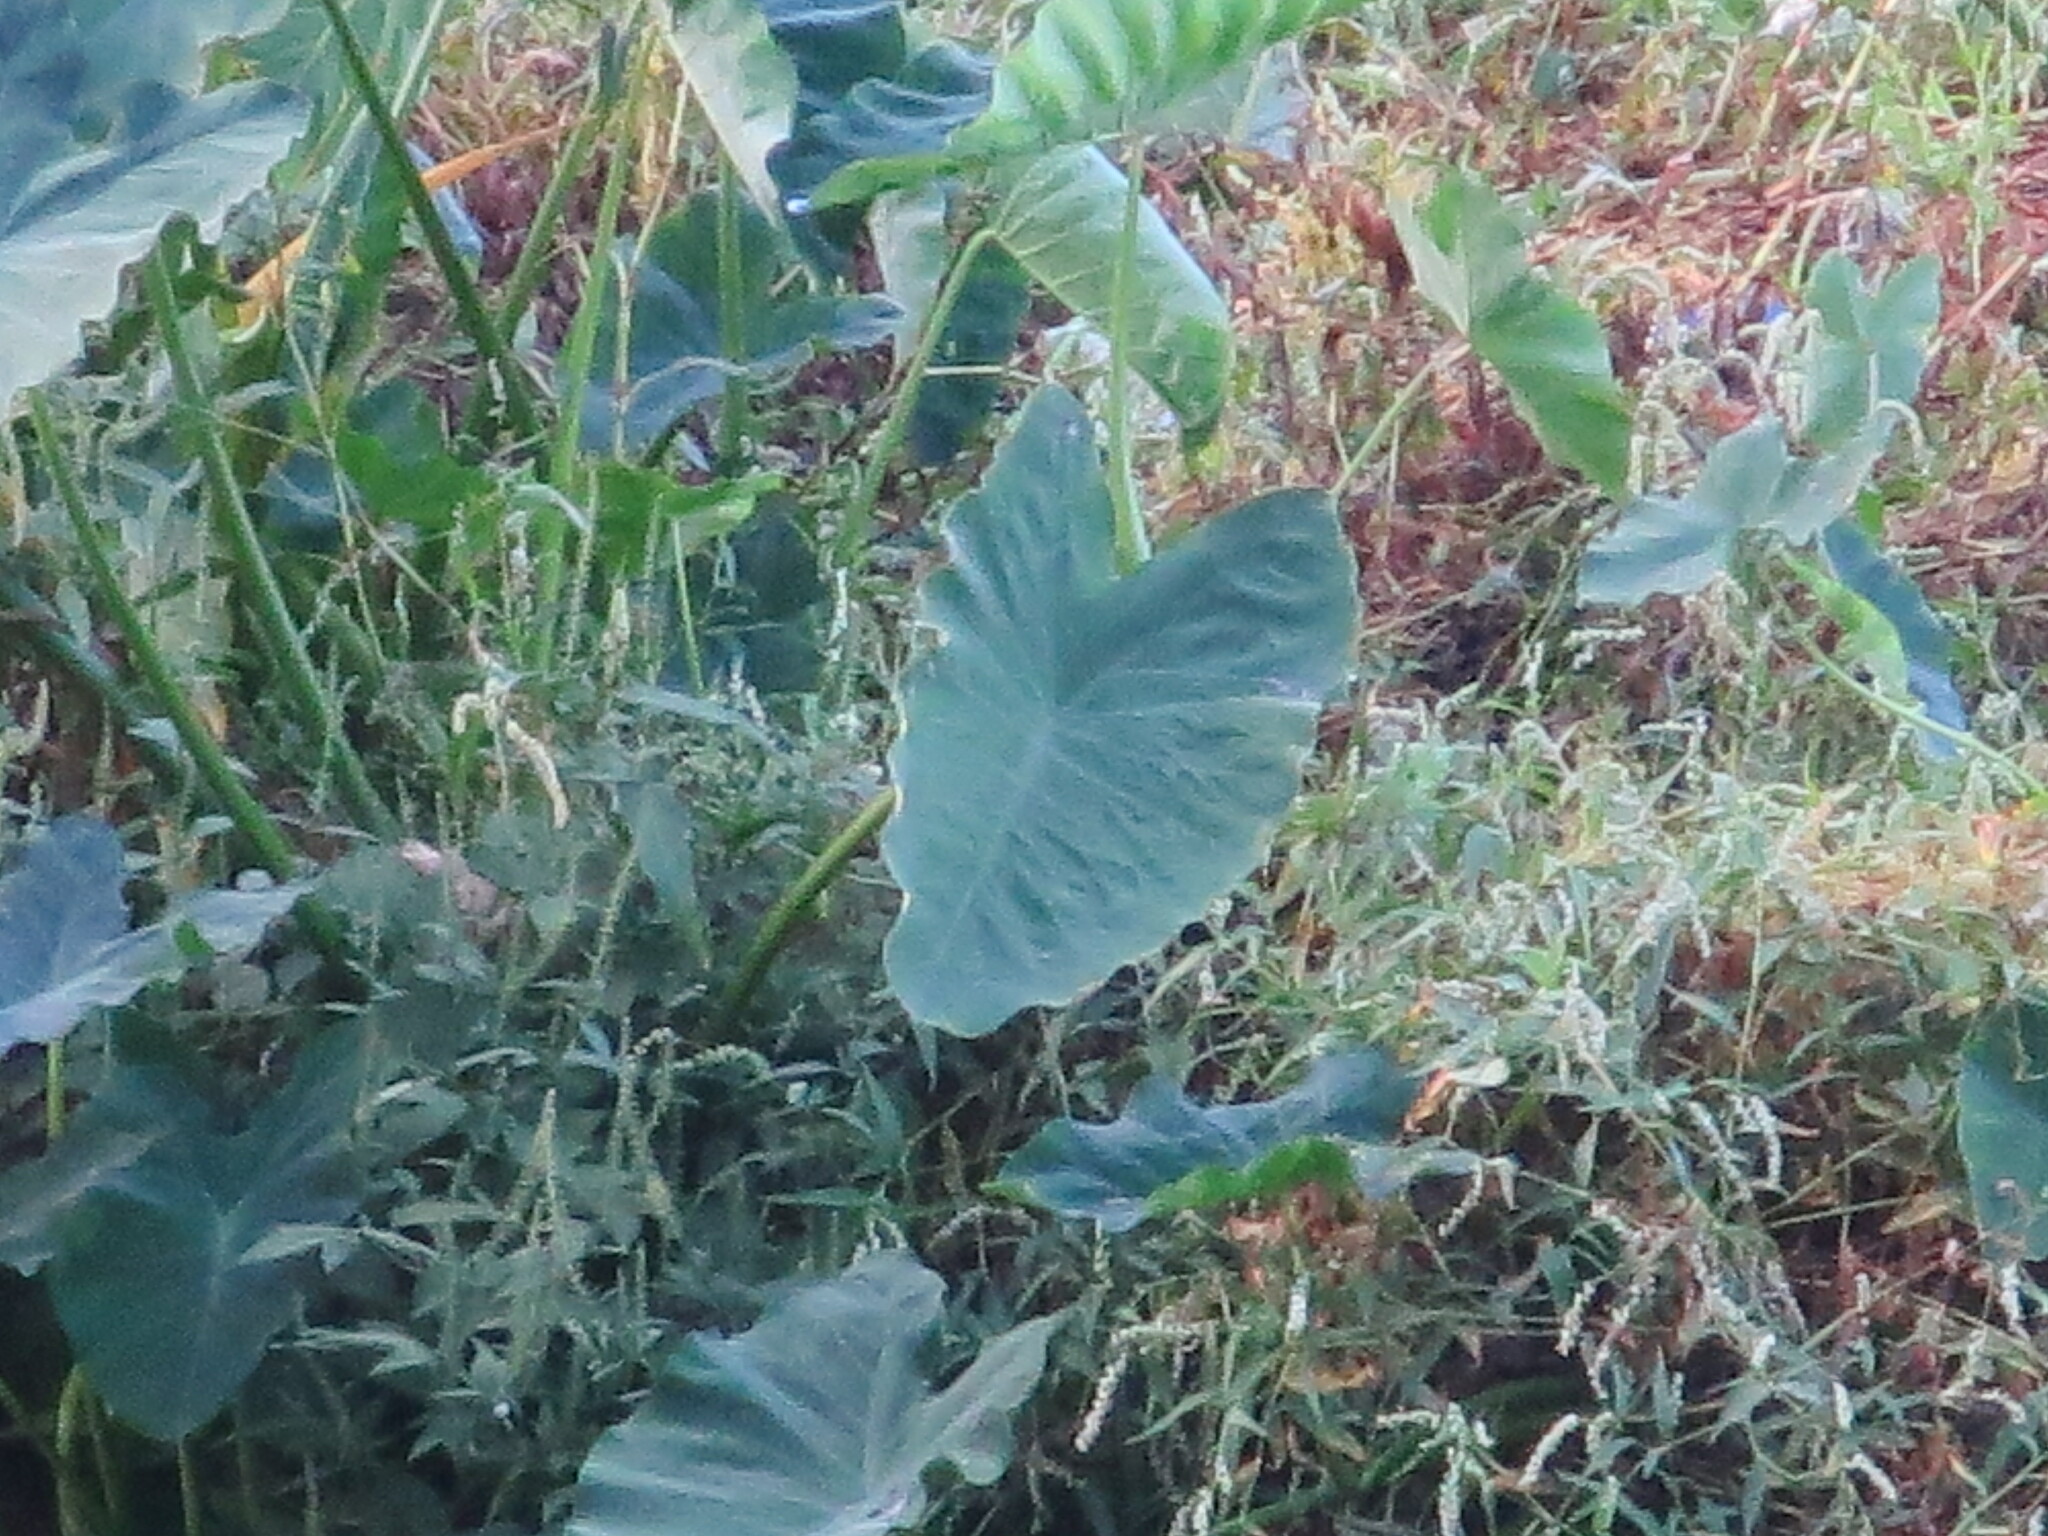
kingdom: Plantae
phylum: Tracheophyta
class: Liliopsida
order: Alismatales
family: Araceae
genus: Colocasia
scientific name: Colocasia esculenta
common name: Taro
